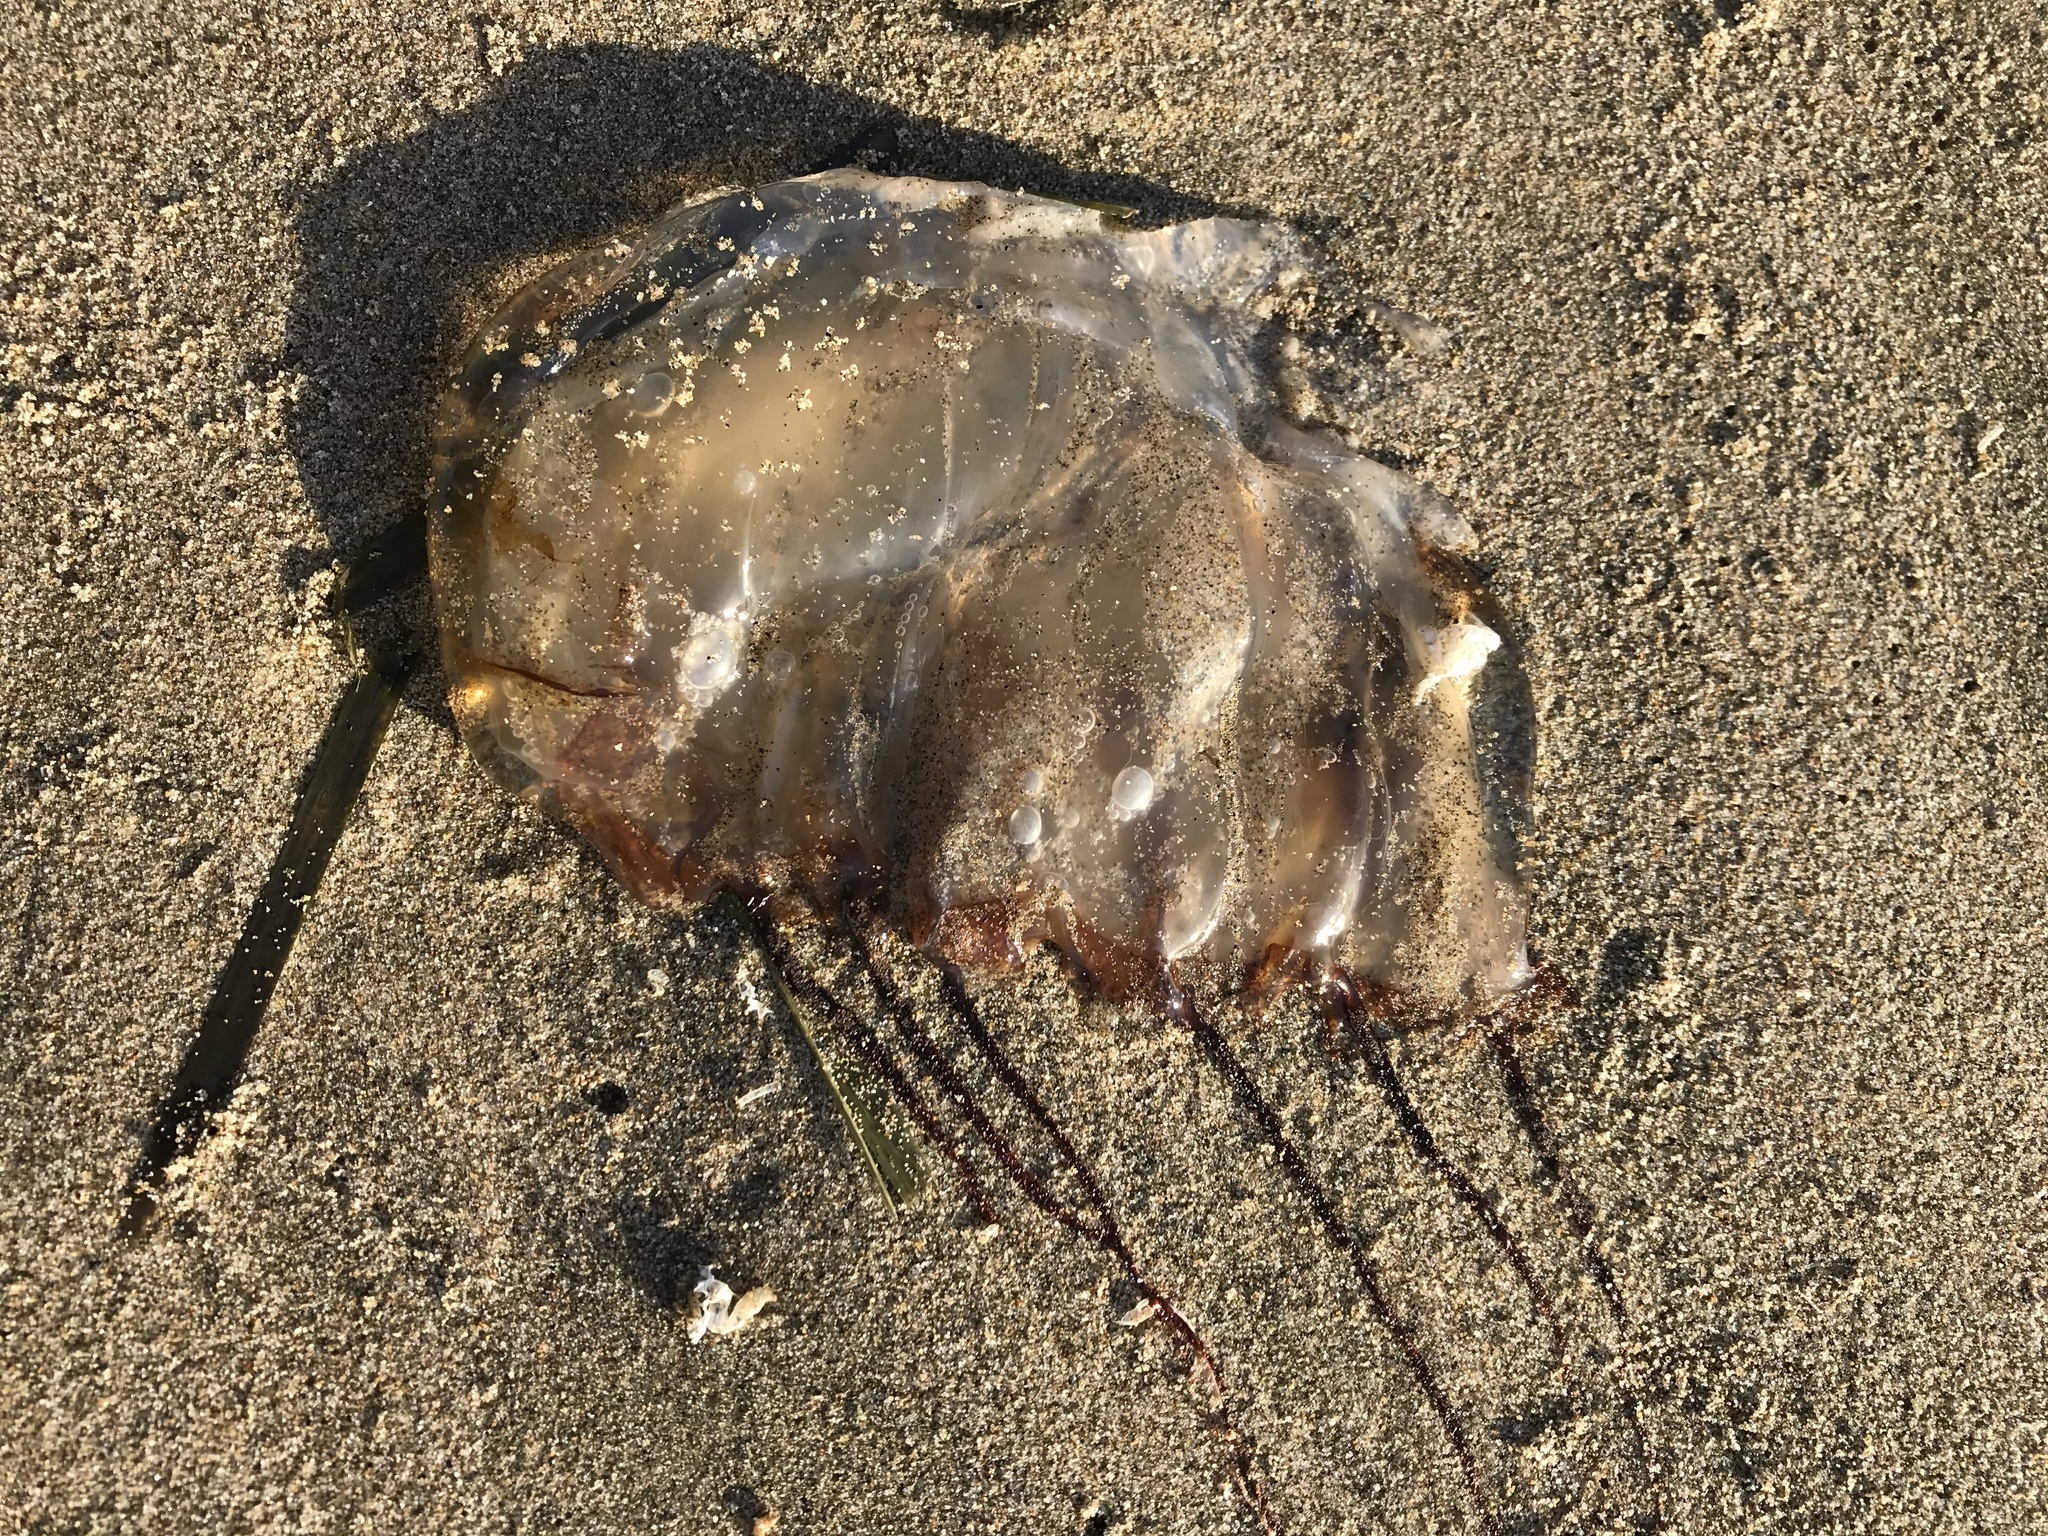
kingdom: Animalia
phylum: Cnidaria
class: Scyphozoa
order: Semaeostomeae
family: Pelagiidae
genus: Chrysaora
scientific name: Chrysaora fuscescens
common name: Sea nettle
